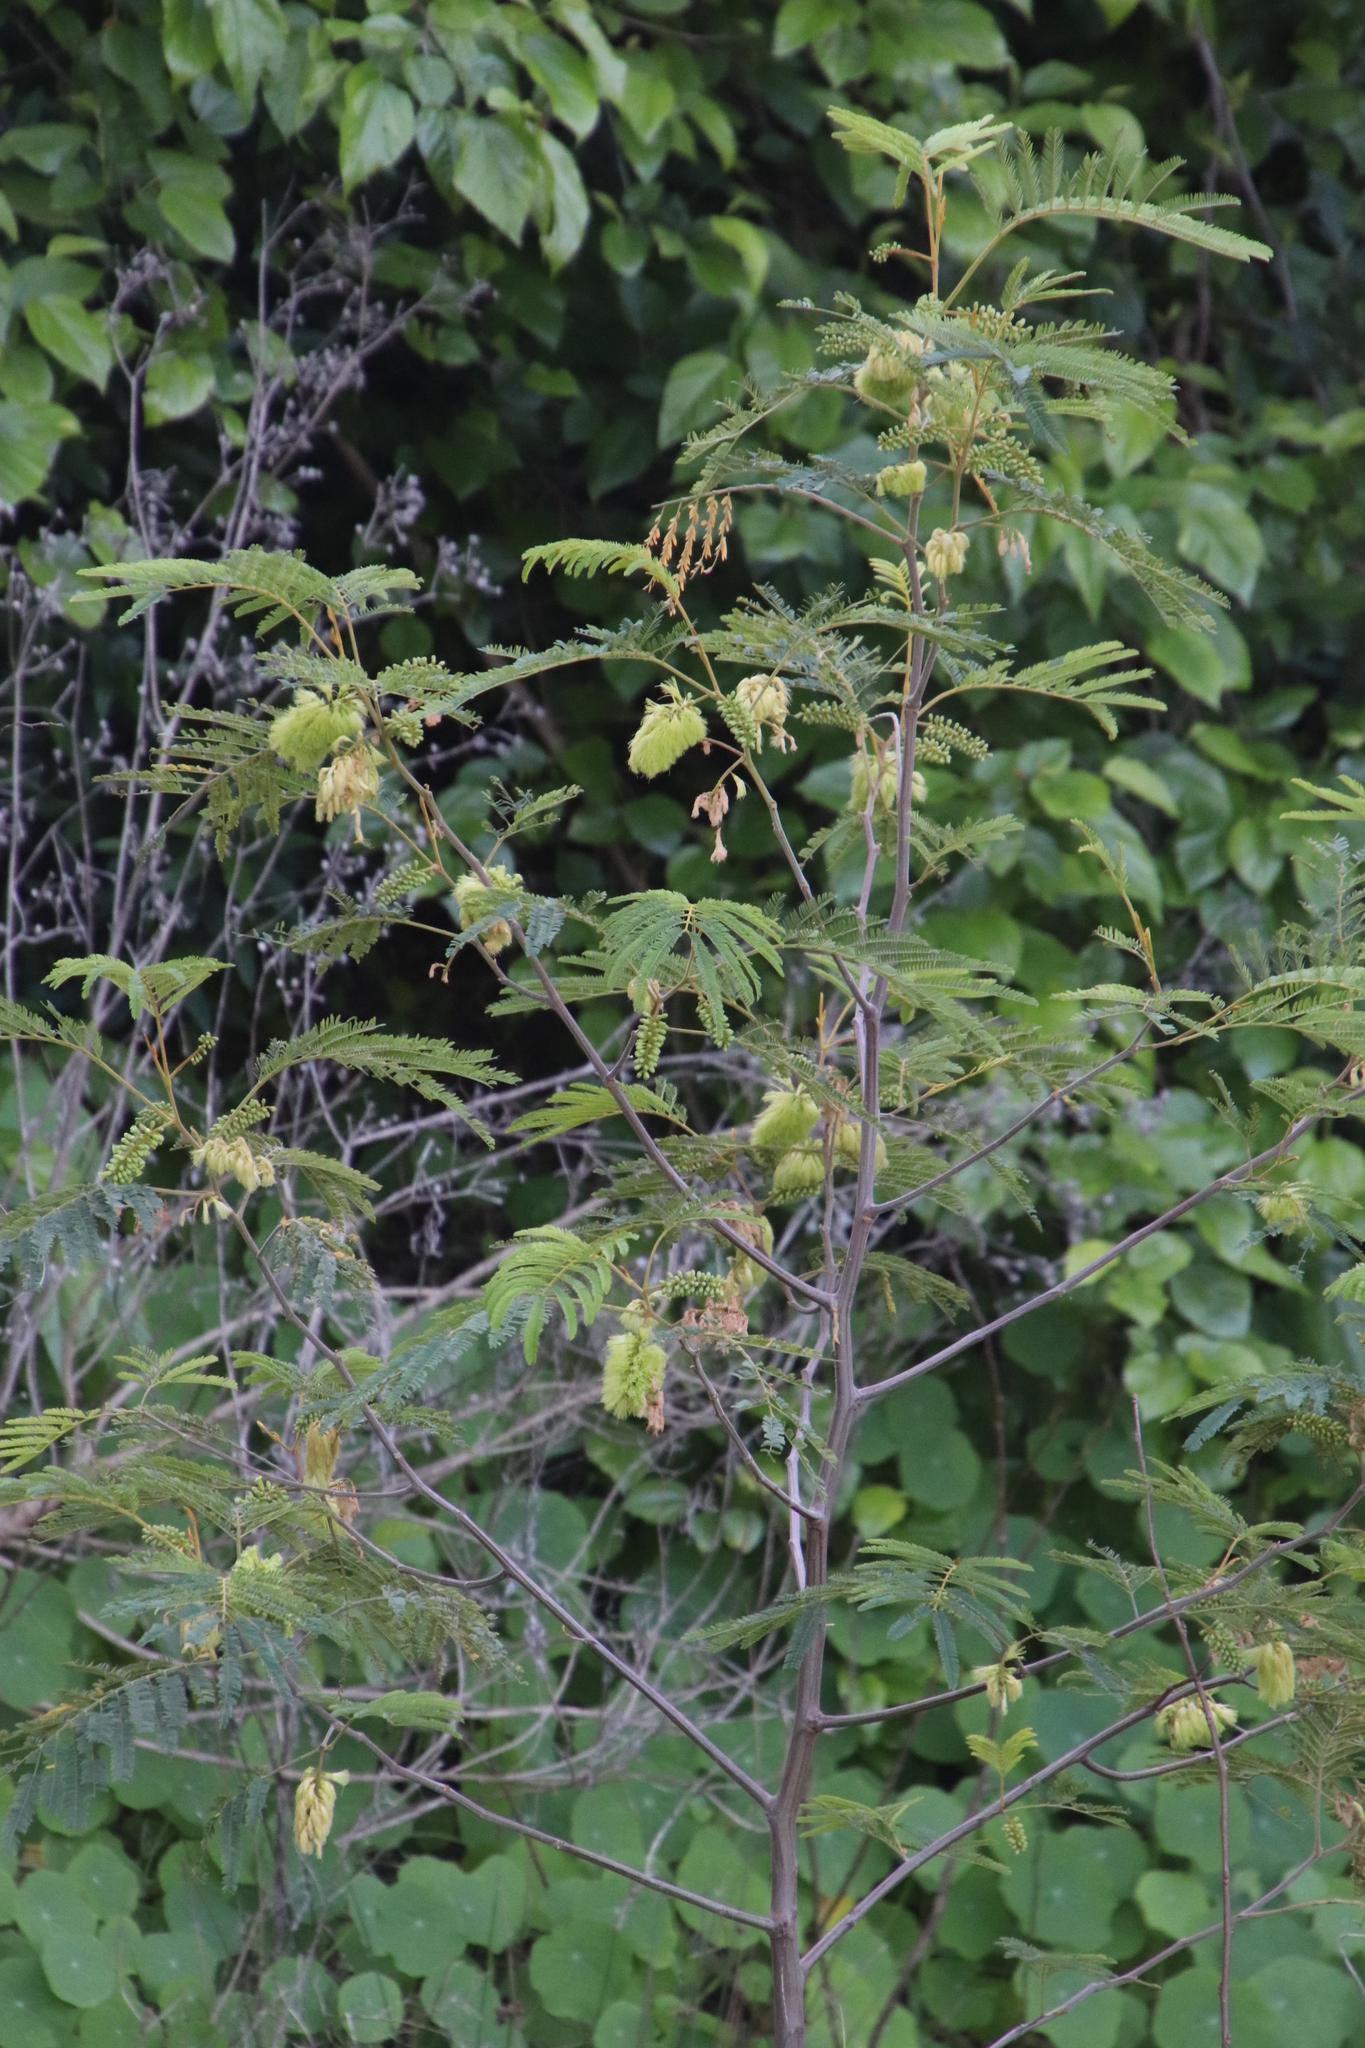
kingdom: Plantae
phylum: Tracheophyta
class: Magnoliopsida
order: Fabales
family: Fabaceae
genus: Paraserianthes
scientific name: Paraserianthes lophantha
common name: Plume albizia
